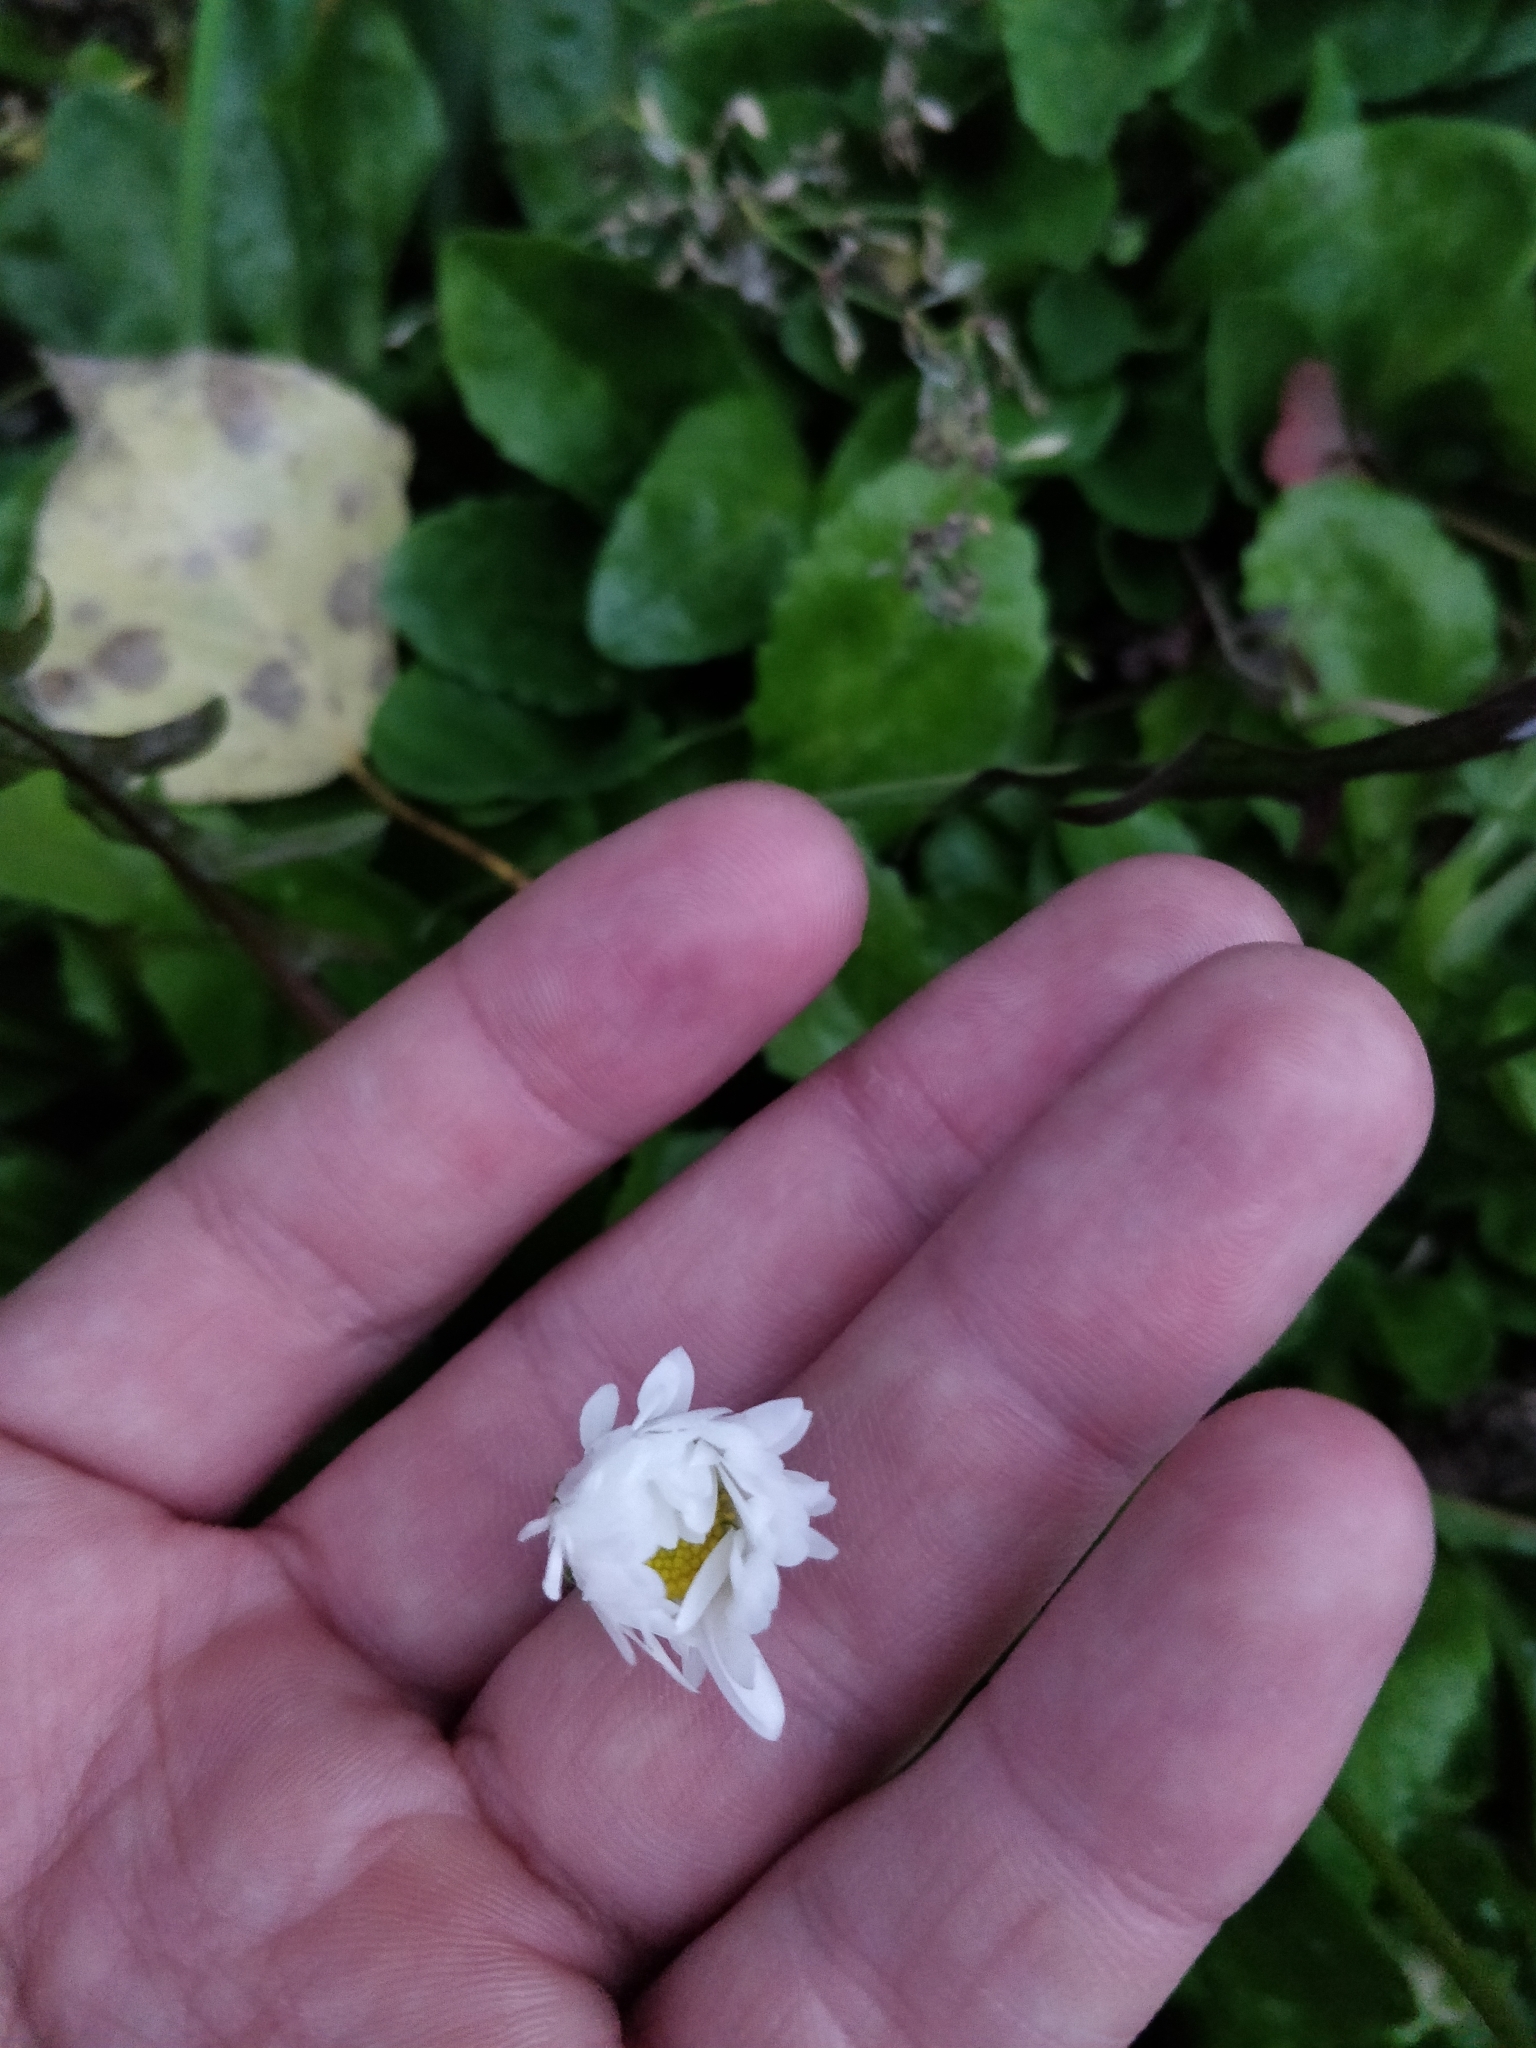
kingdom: Plantae
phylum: Tracheophyta
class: Magnoliopsida
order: Asterales
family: Asteraceae
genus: Bellis
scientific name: Bellis perennis
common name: Lawndaisy
